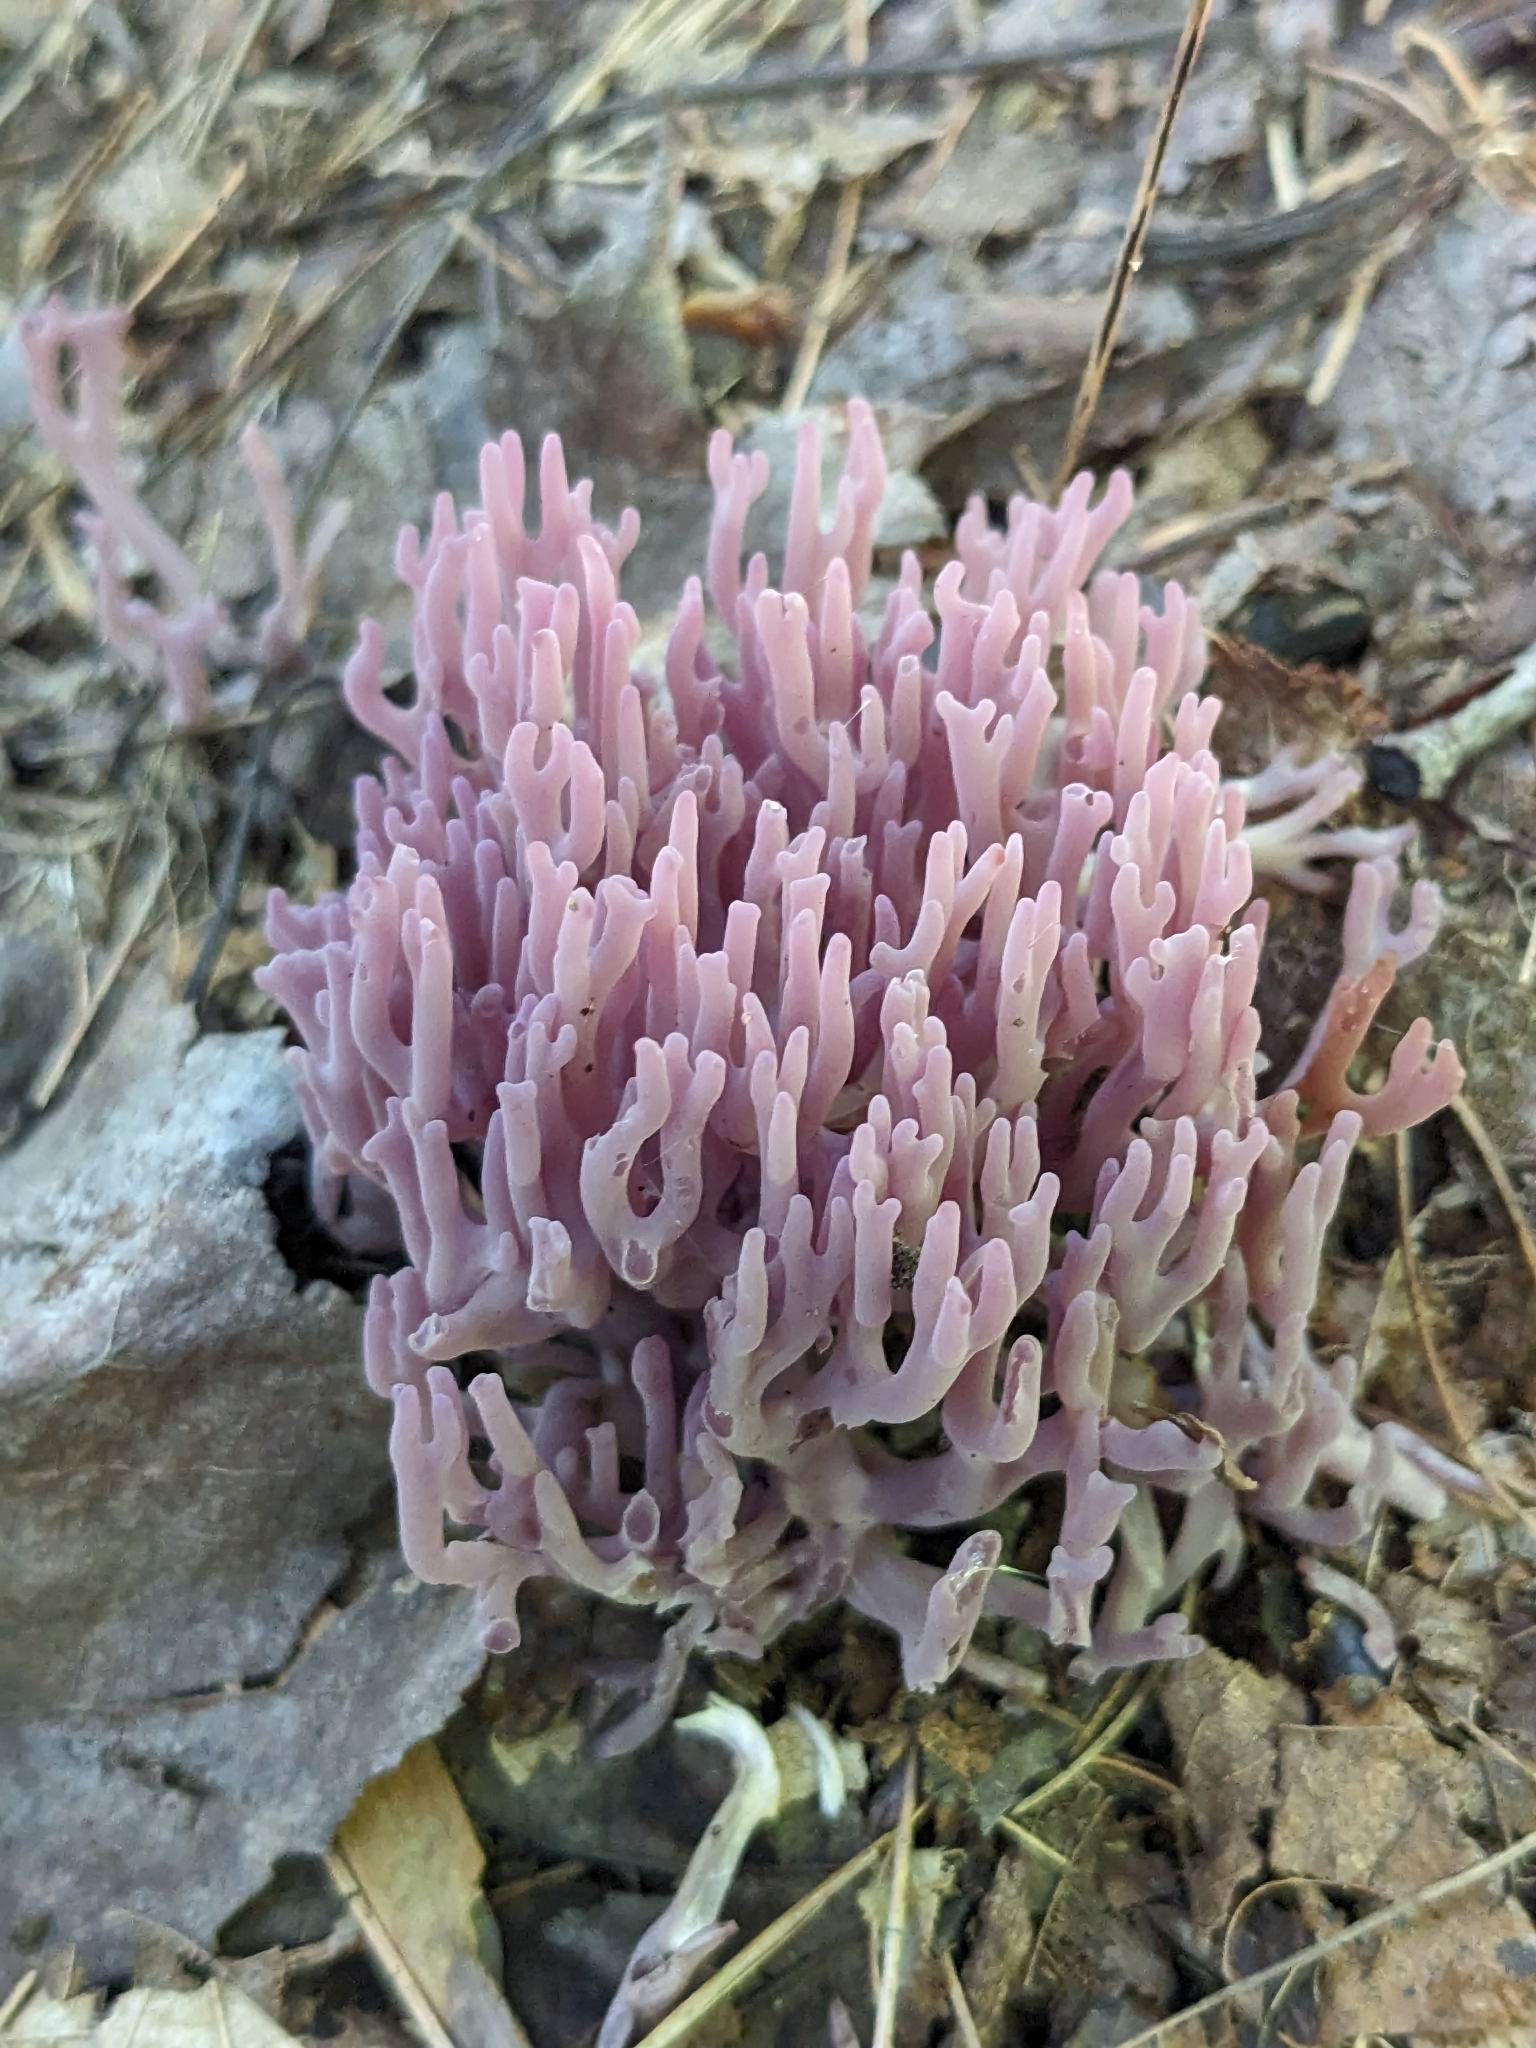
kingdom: Fungi
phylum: Basidiomycota
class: Agaricomycetes
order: Agaricales
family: Clavariaceae
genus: Clavaria
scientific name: Clavaria zollingeri
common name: Violet coral
